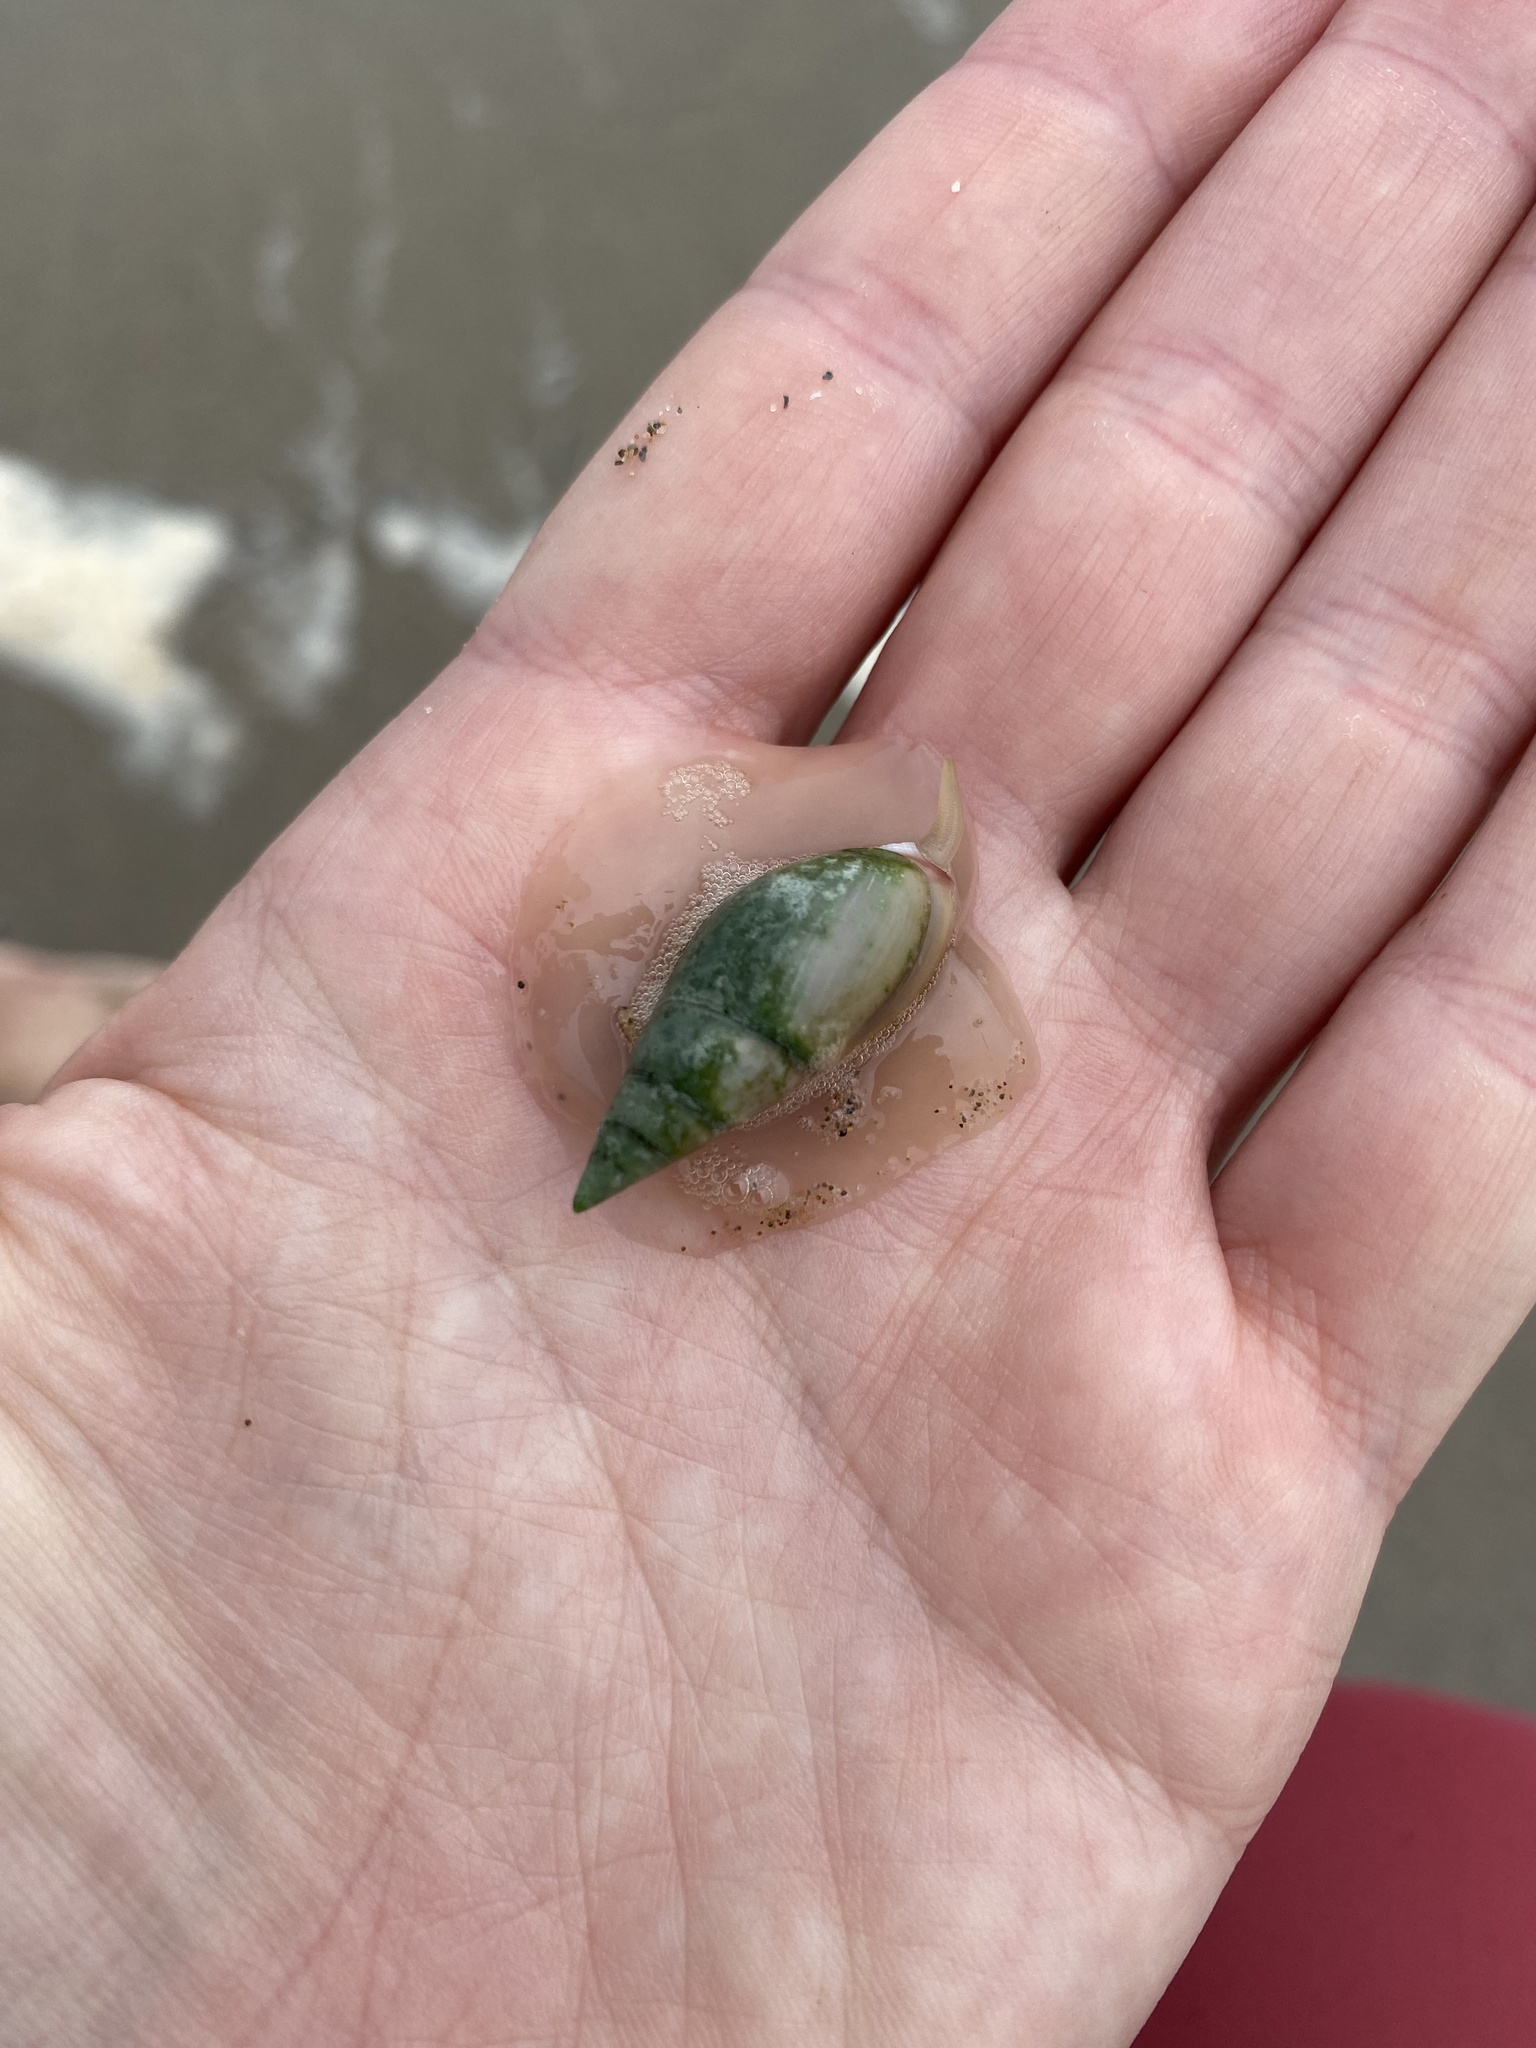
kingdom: Animalia
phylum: Mollusca
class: Gastropoda
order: Neogastropoda
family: Nassariidae
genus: Bullia
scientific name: Bullia rhodostoma
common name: Smooth plough shell
